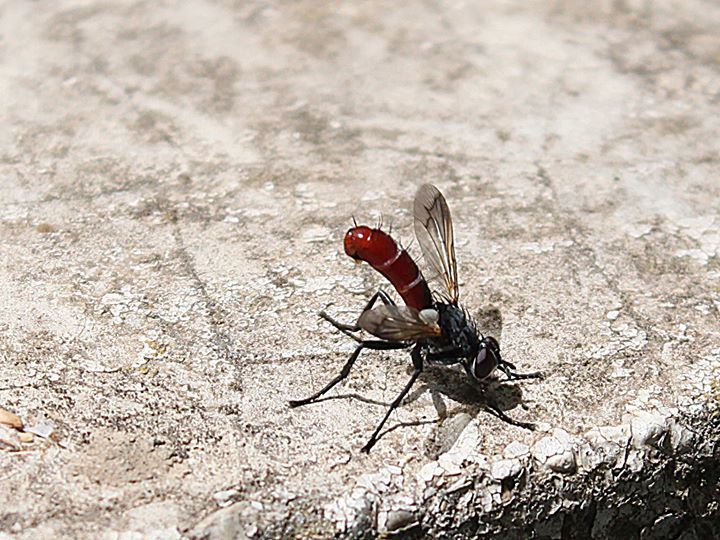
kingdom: Animalia
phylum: Arthropoda
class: Insecta
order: Diptera
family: Tachinidae
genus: Cylindromyia
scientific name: Cylindromyia bicolor
